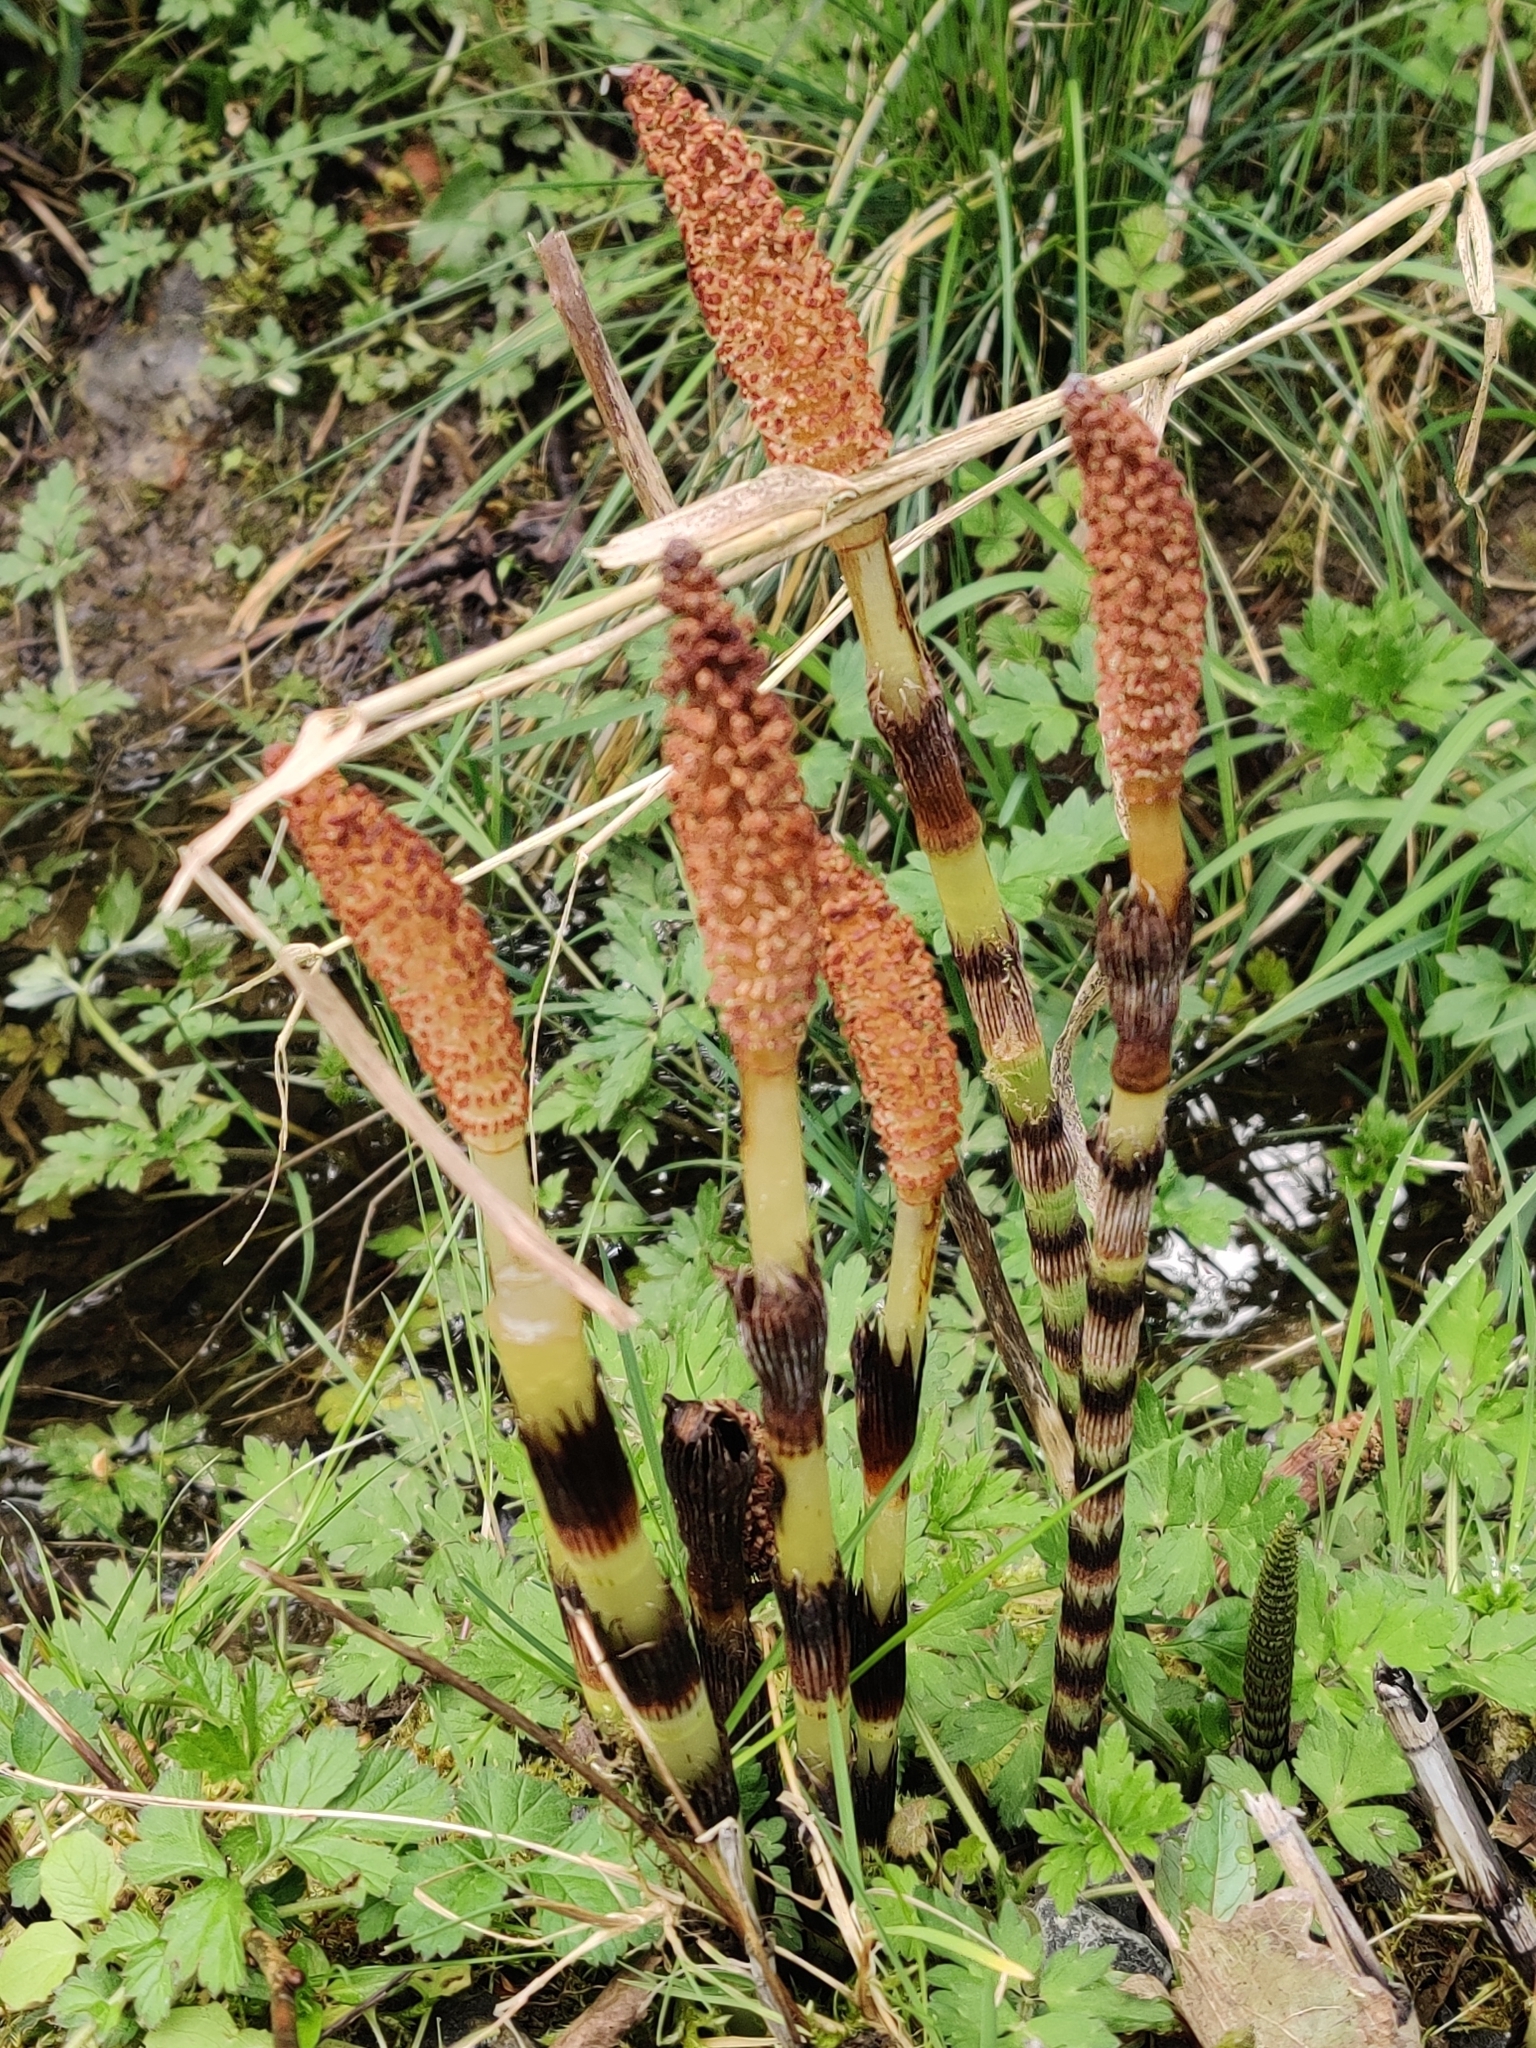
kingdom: Plantae
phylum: Tracheophyta
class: Polypodiopsida
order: Equisetales
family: Equisetaceae
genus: Equisetum
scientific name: Equisetum telmateia
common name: Great horsetail
